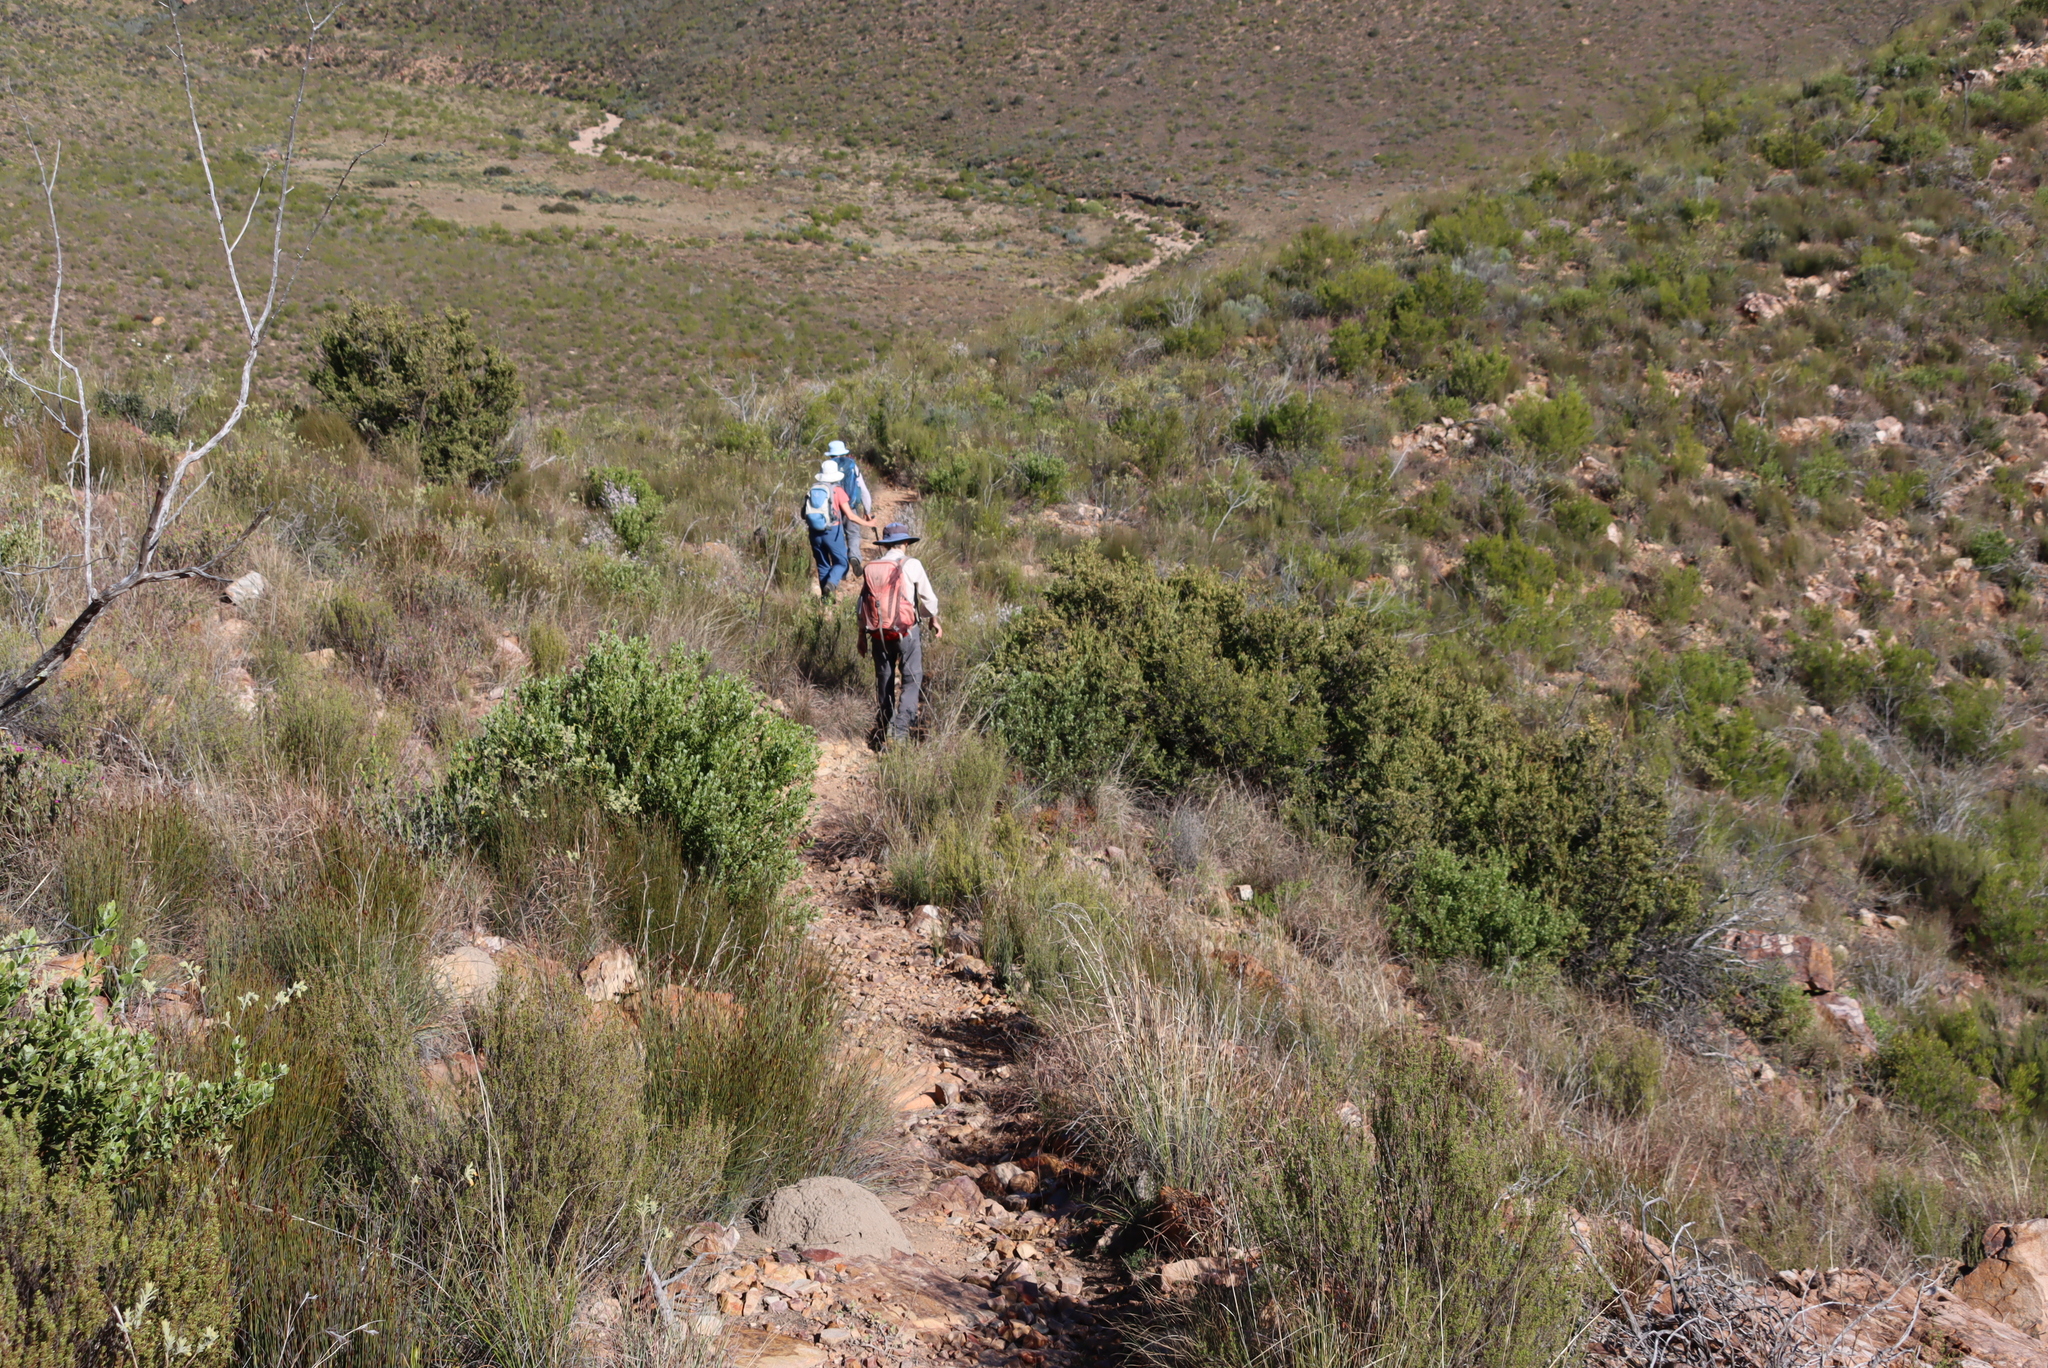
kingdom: Plantae
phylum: Tracheophyta
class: Magnoliopsida
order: Asterales
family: Asteraceae
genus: Osteospermum
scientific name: Osteospermum moniliferum
